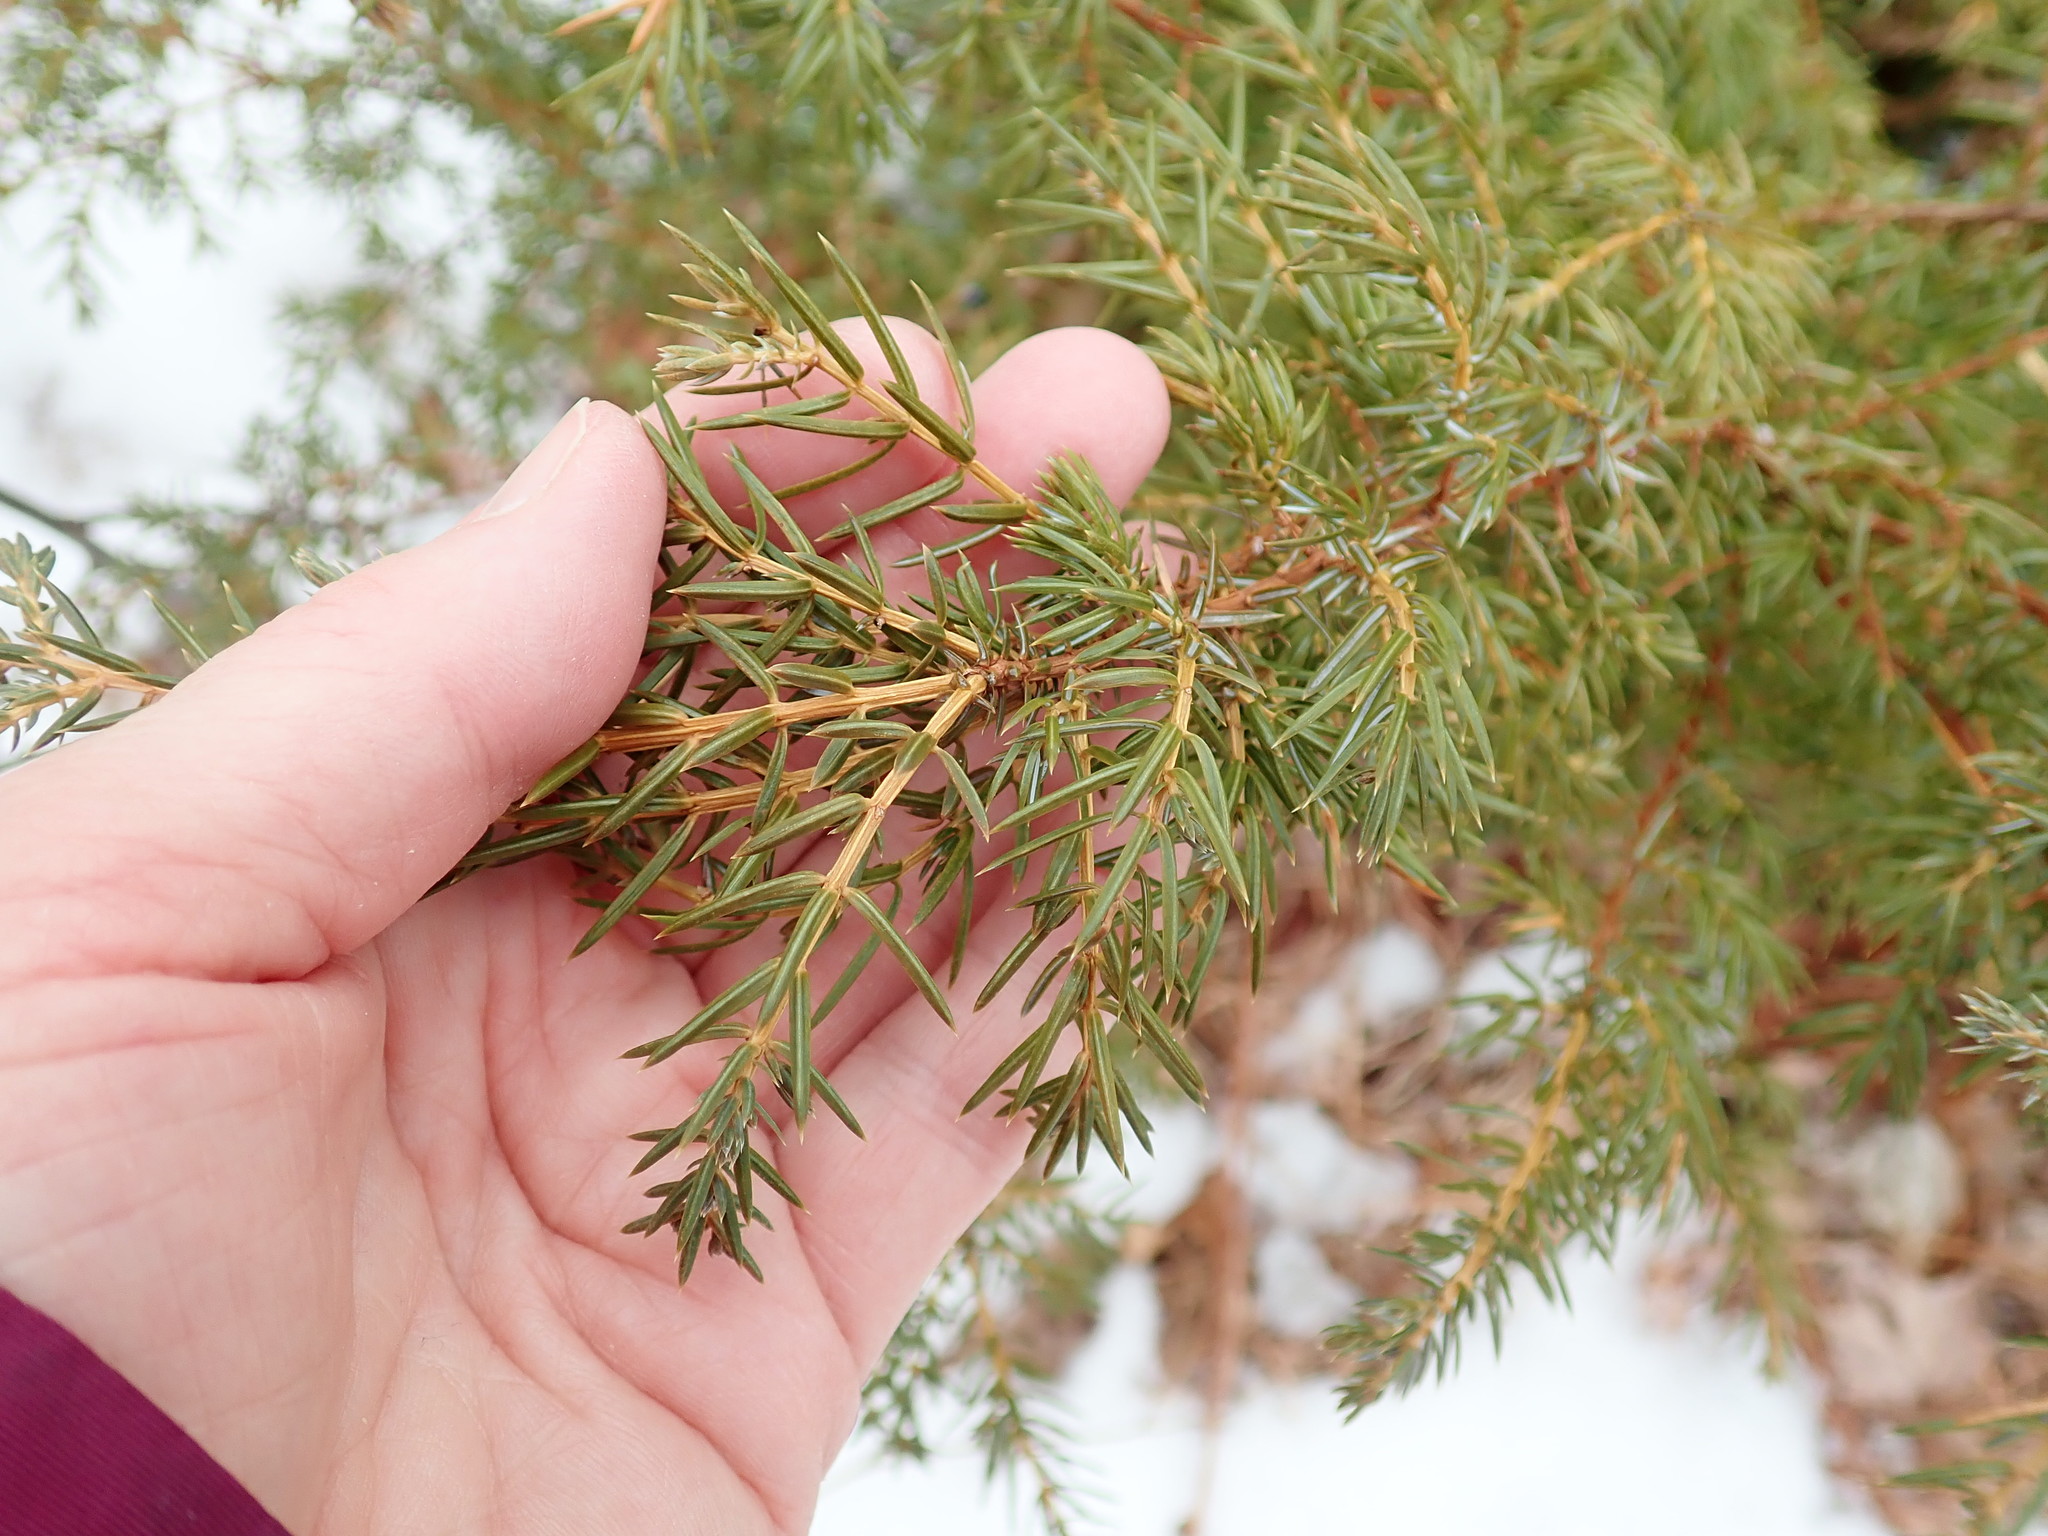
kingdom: Plantae
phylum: Tracheophyta
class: Pinopsida
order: Pinales
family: Cupressaceae
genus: Juniperus
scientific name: Juniperus communis
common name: Common juniper
